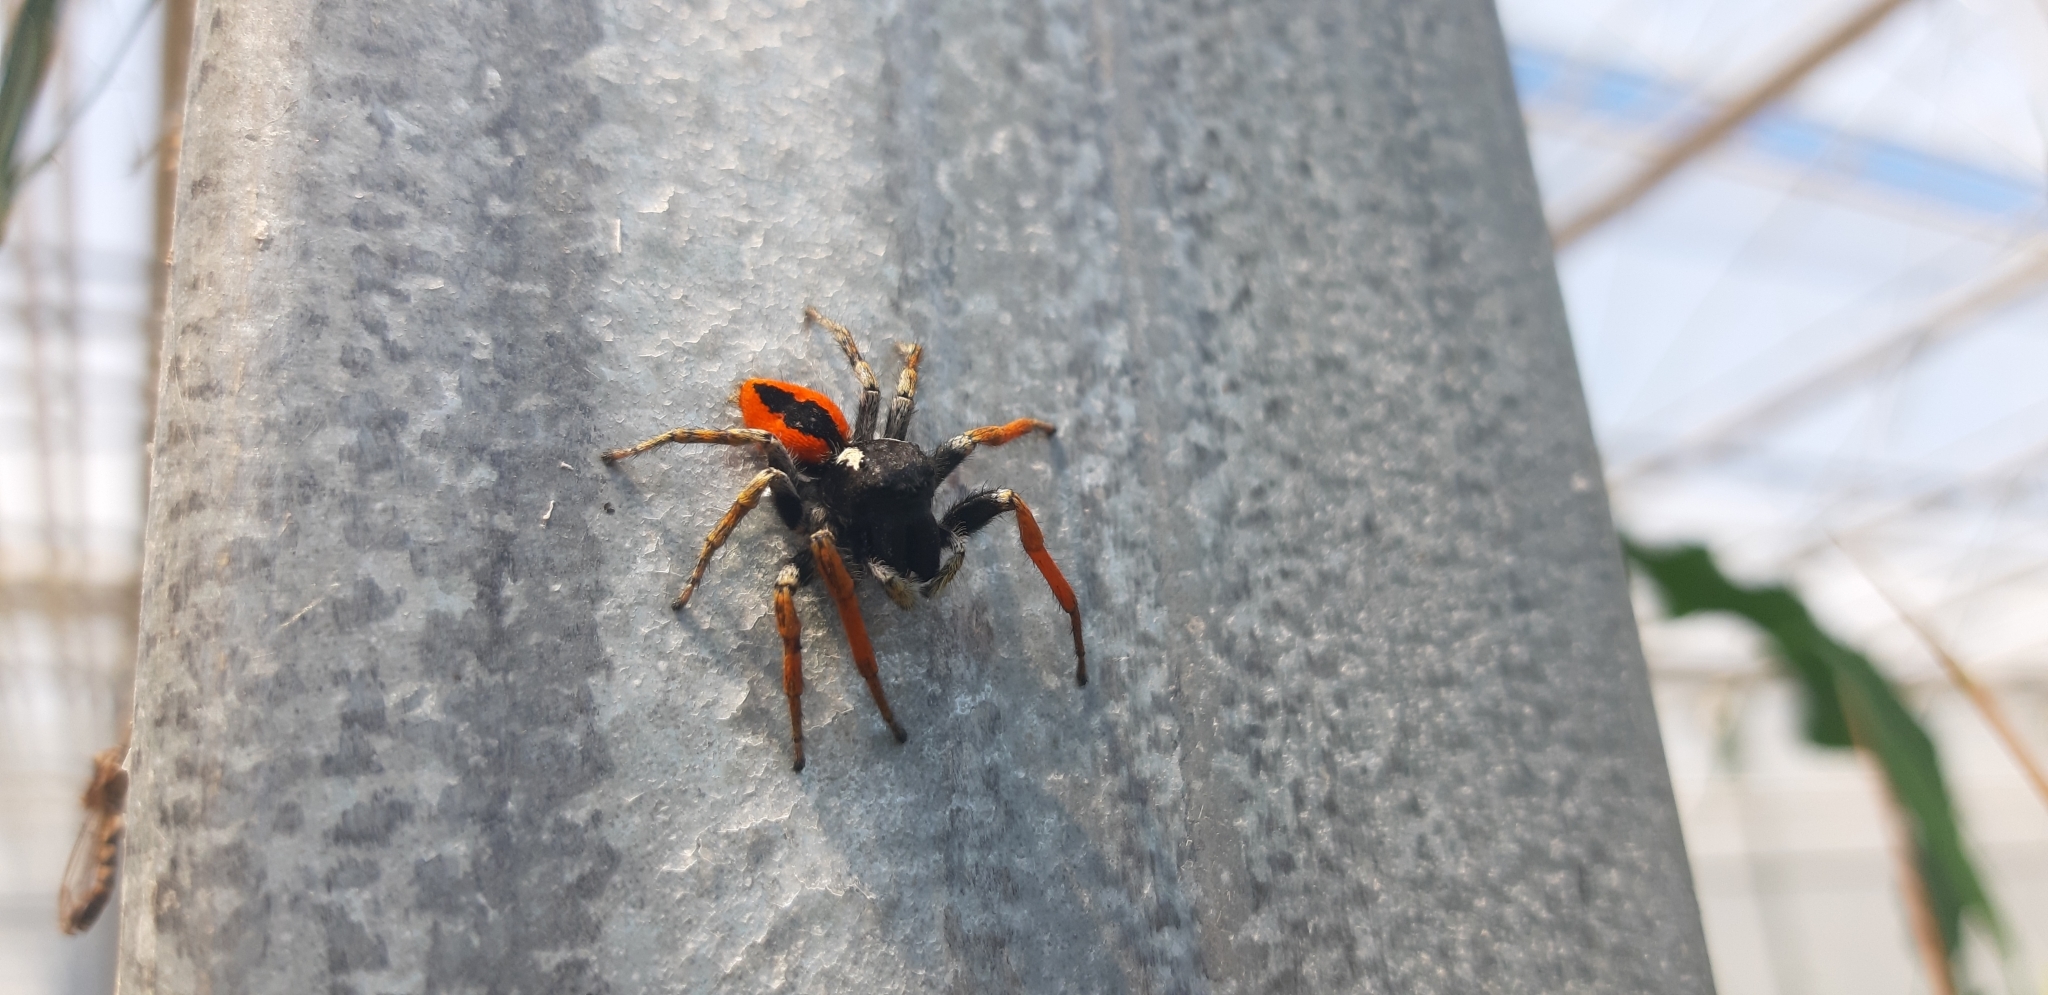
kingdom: Animalia
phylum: Arthropoda
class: Arachnida
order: Araneae
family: Salticidae
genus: Philaeus
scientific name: Philaeus chrysops
